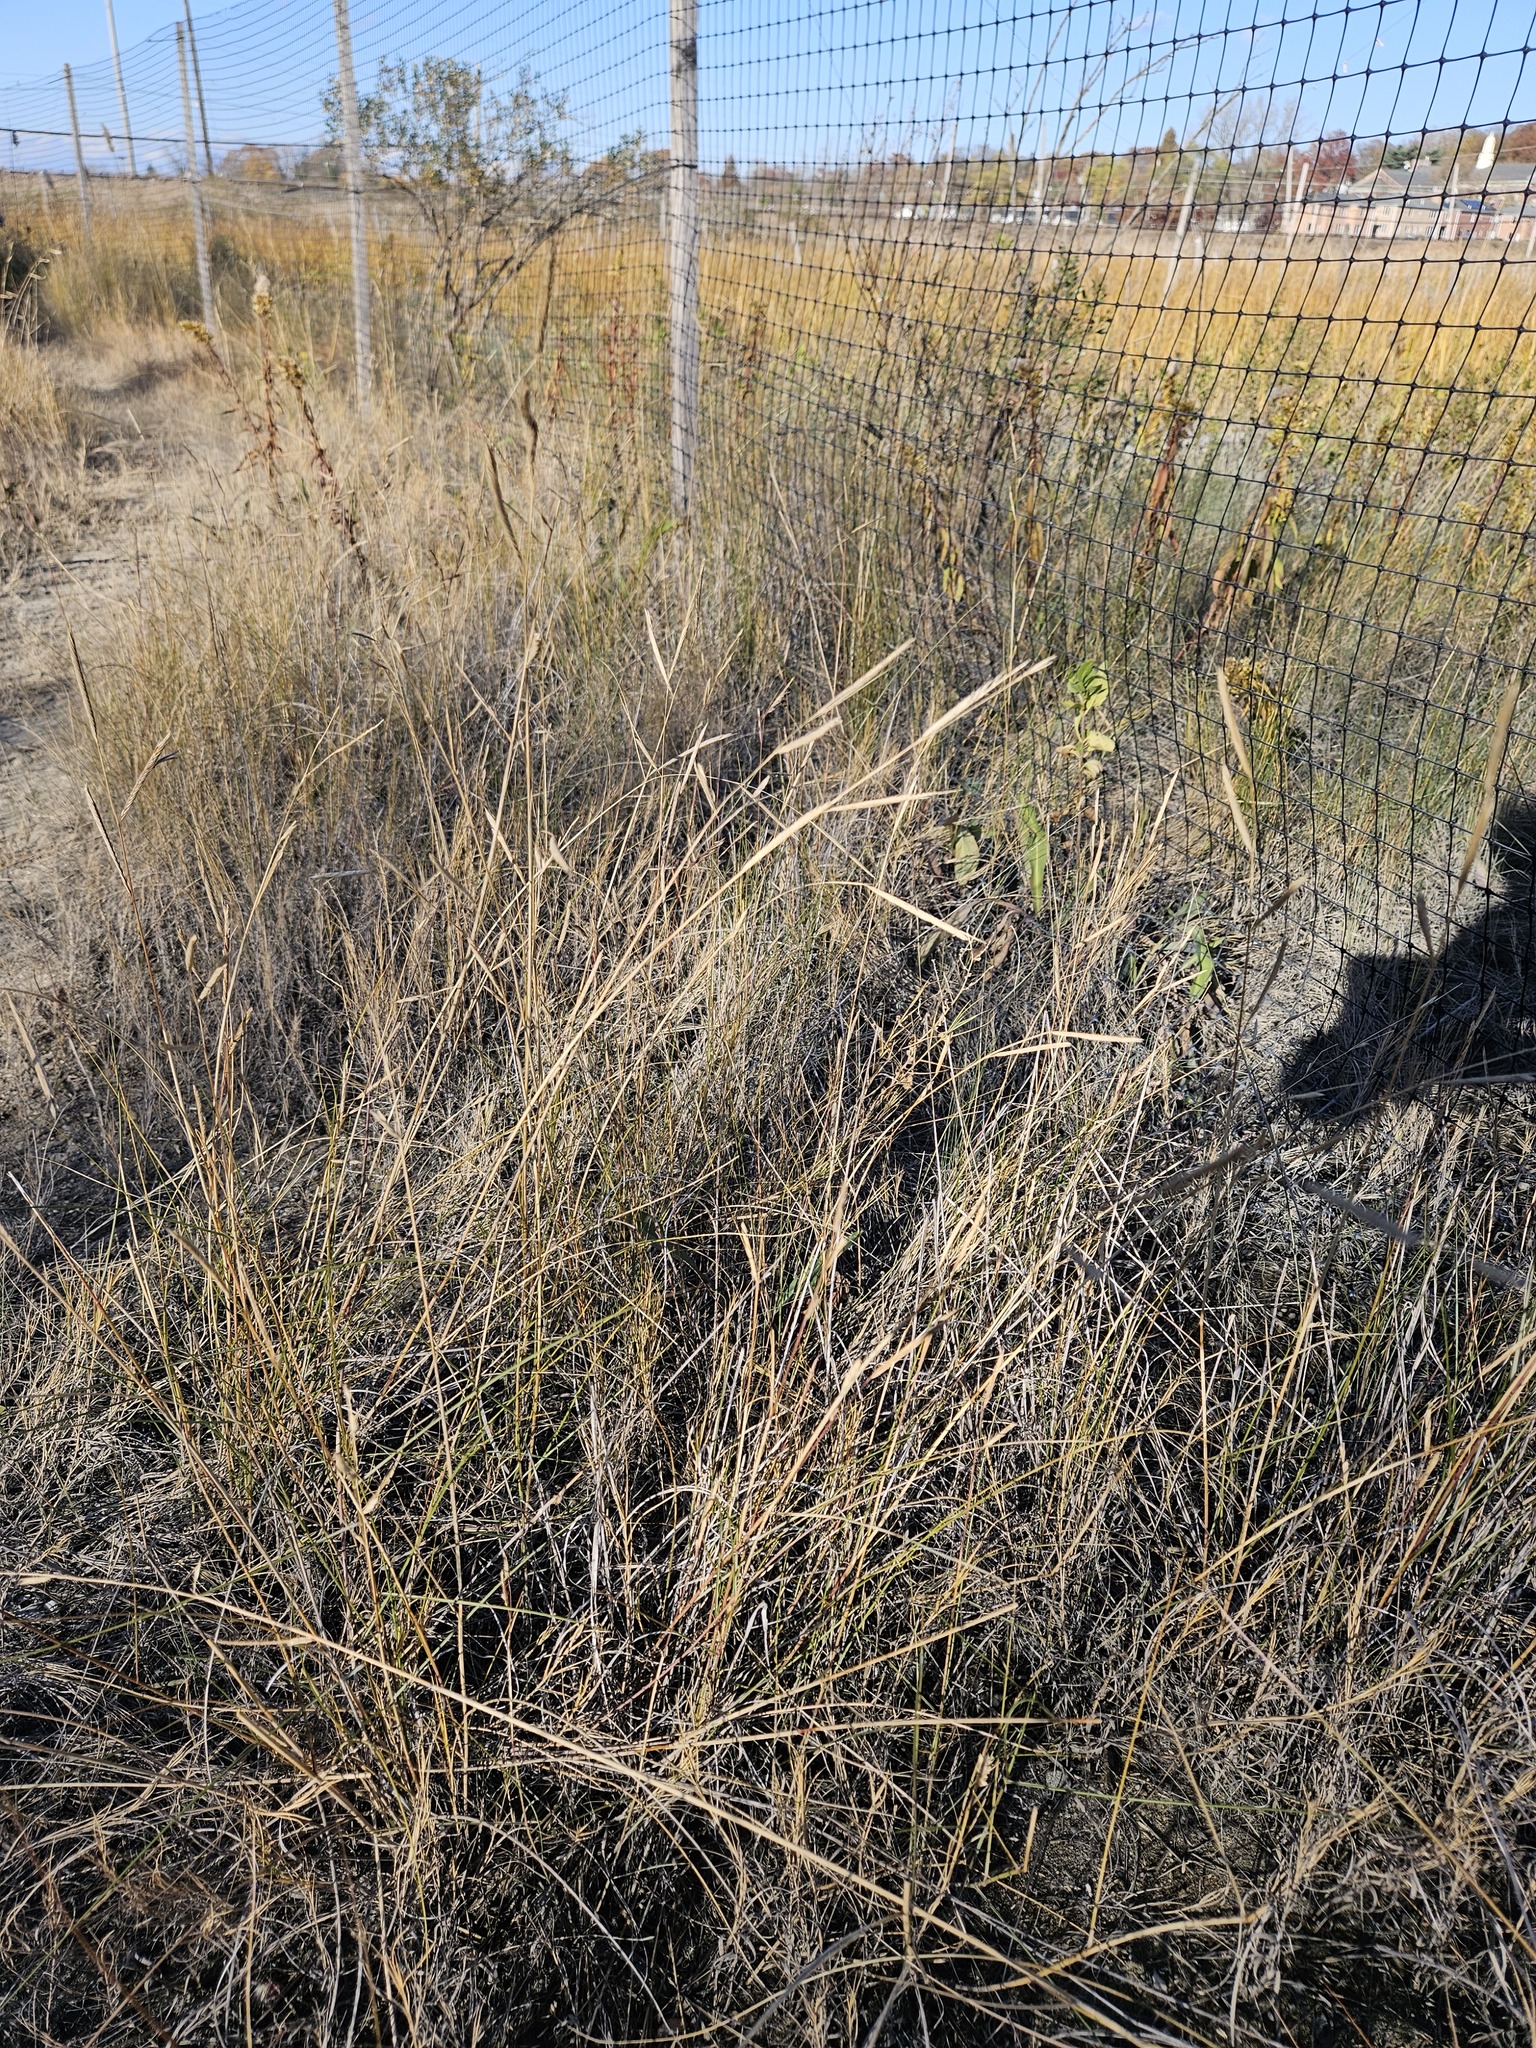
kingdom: Plantae
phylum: Tracheophyta
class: Liliopsida
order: Poales
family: Poaceae
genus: Sporobolus
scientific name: Sporobolus pumilus
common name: Highwater grass
